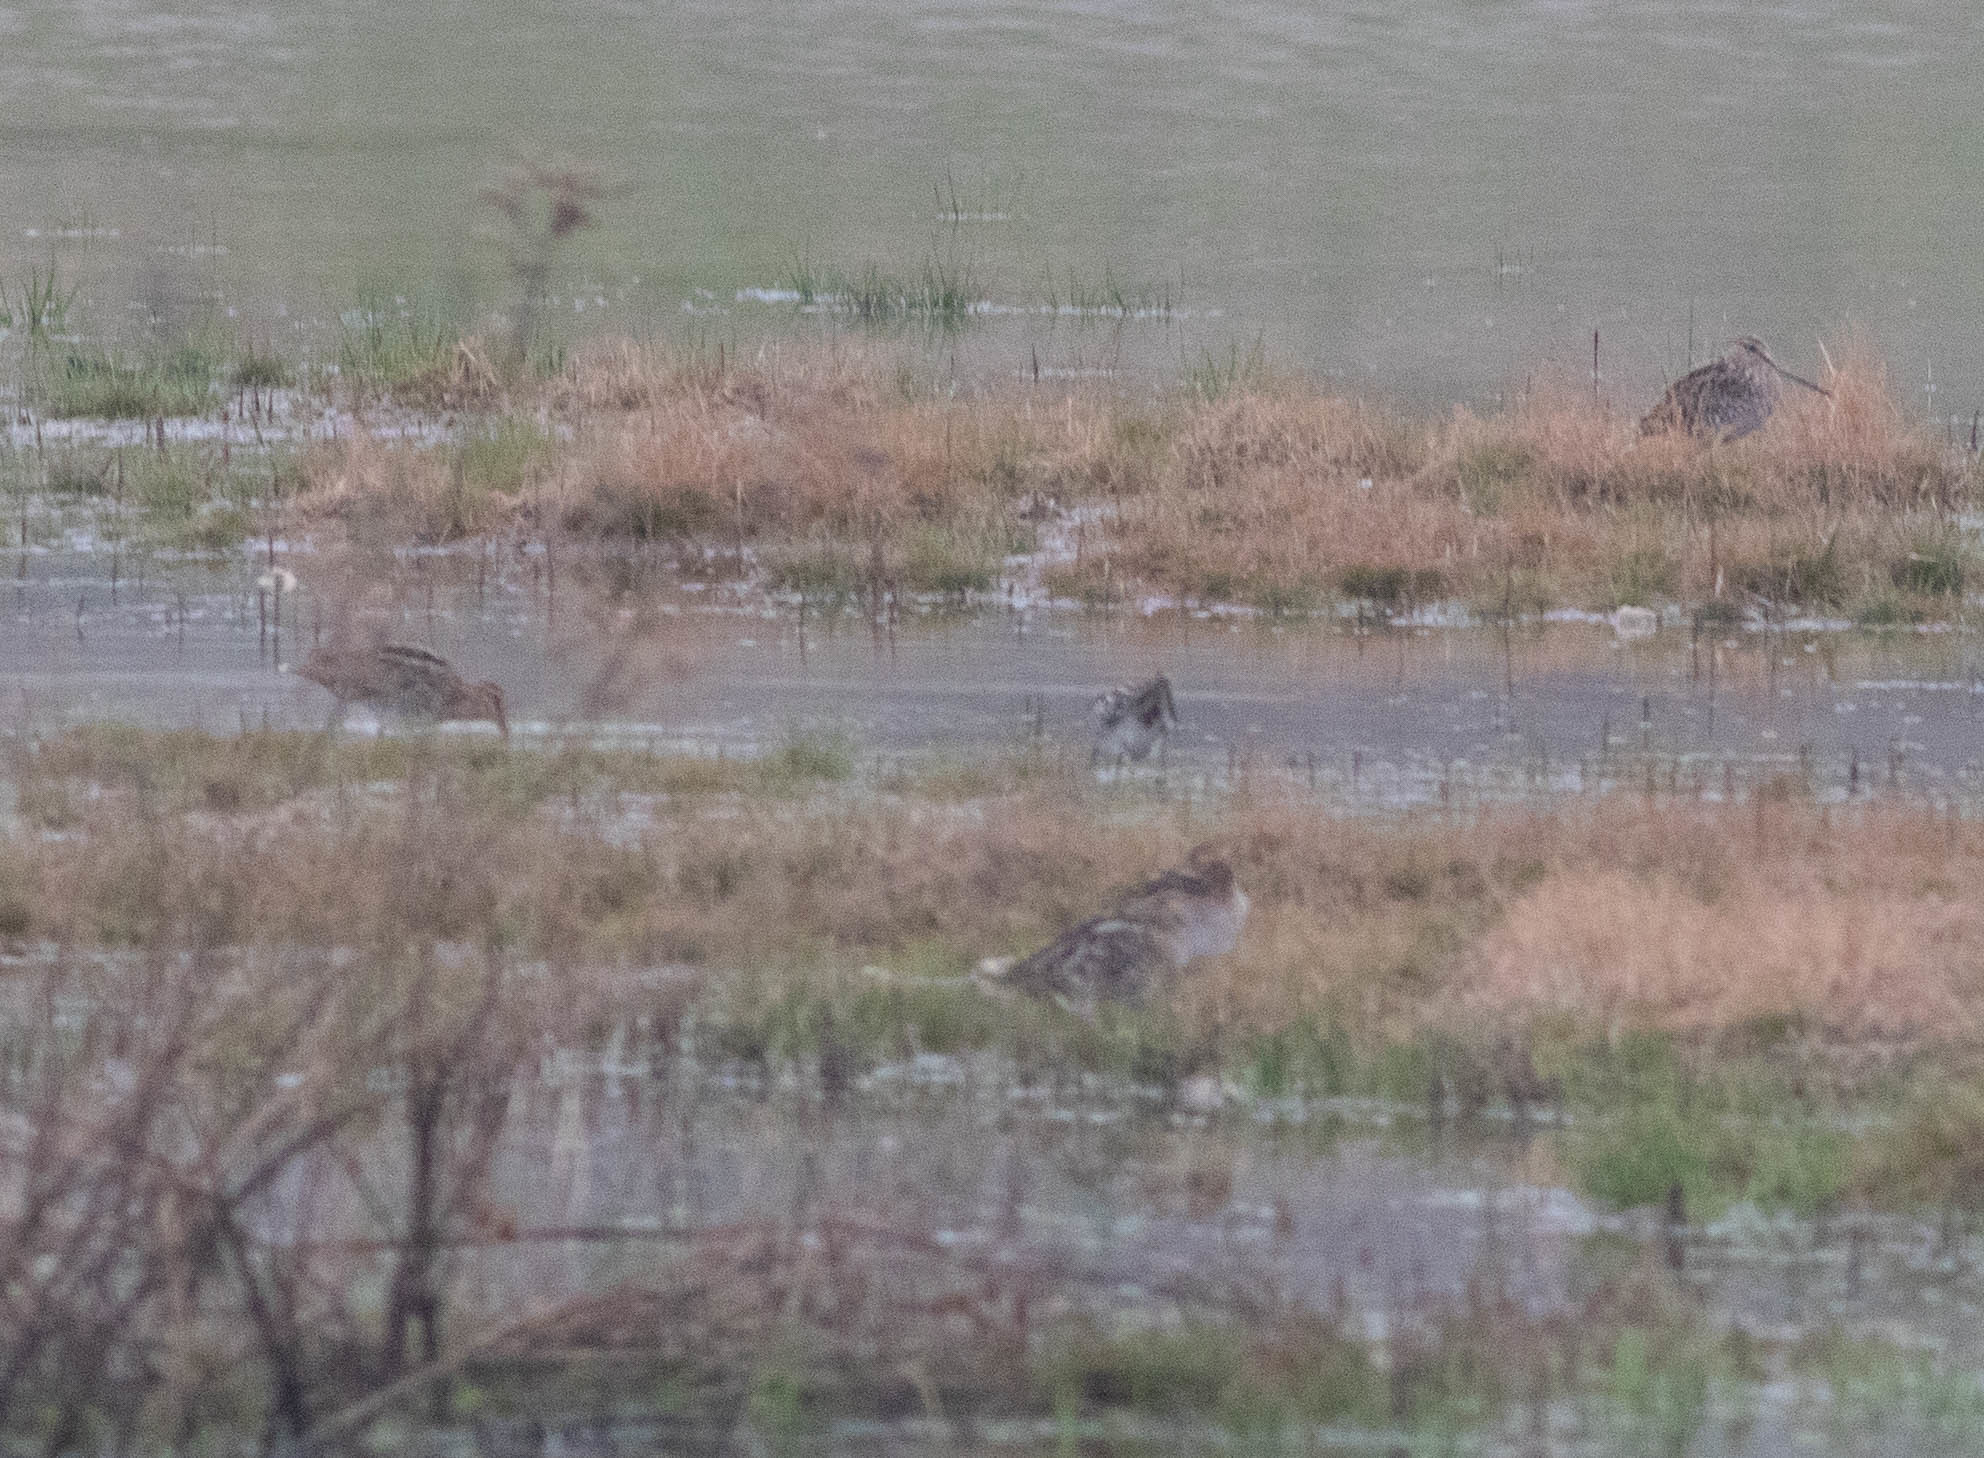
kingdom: Animalia
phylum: Chordata
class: Aves
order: Charadriiformes
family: Scolopacidae
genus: Gallinago
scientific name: Gallinago delicata
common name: Wilson's snipe
